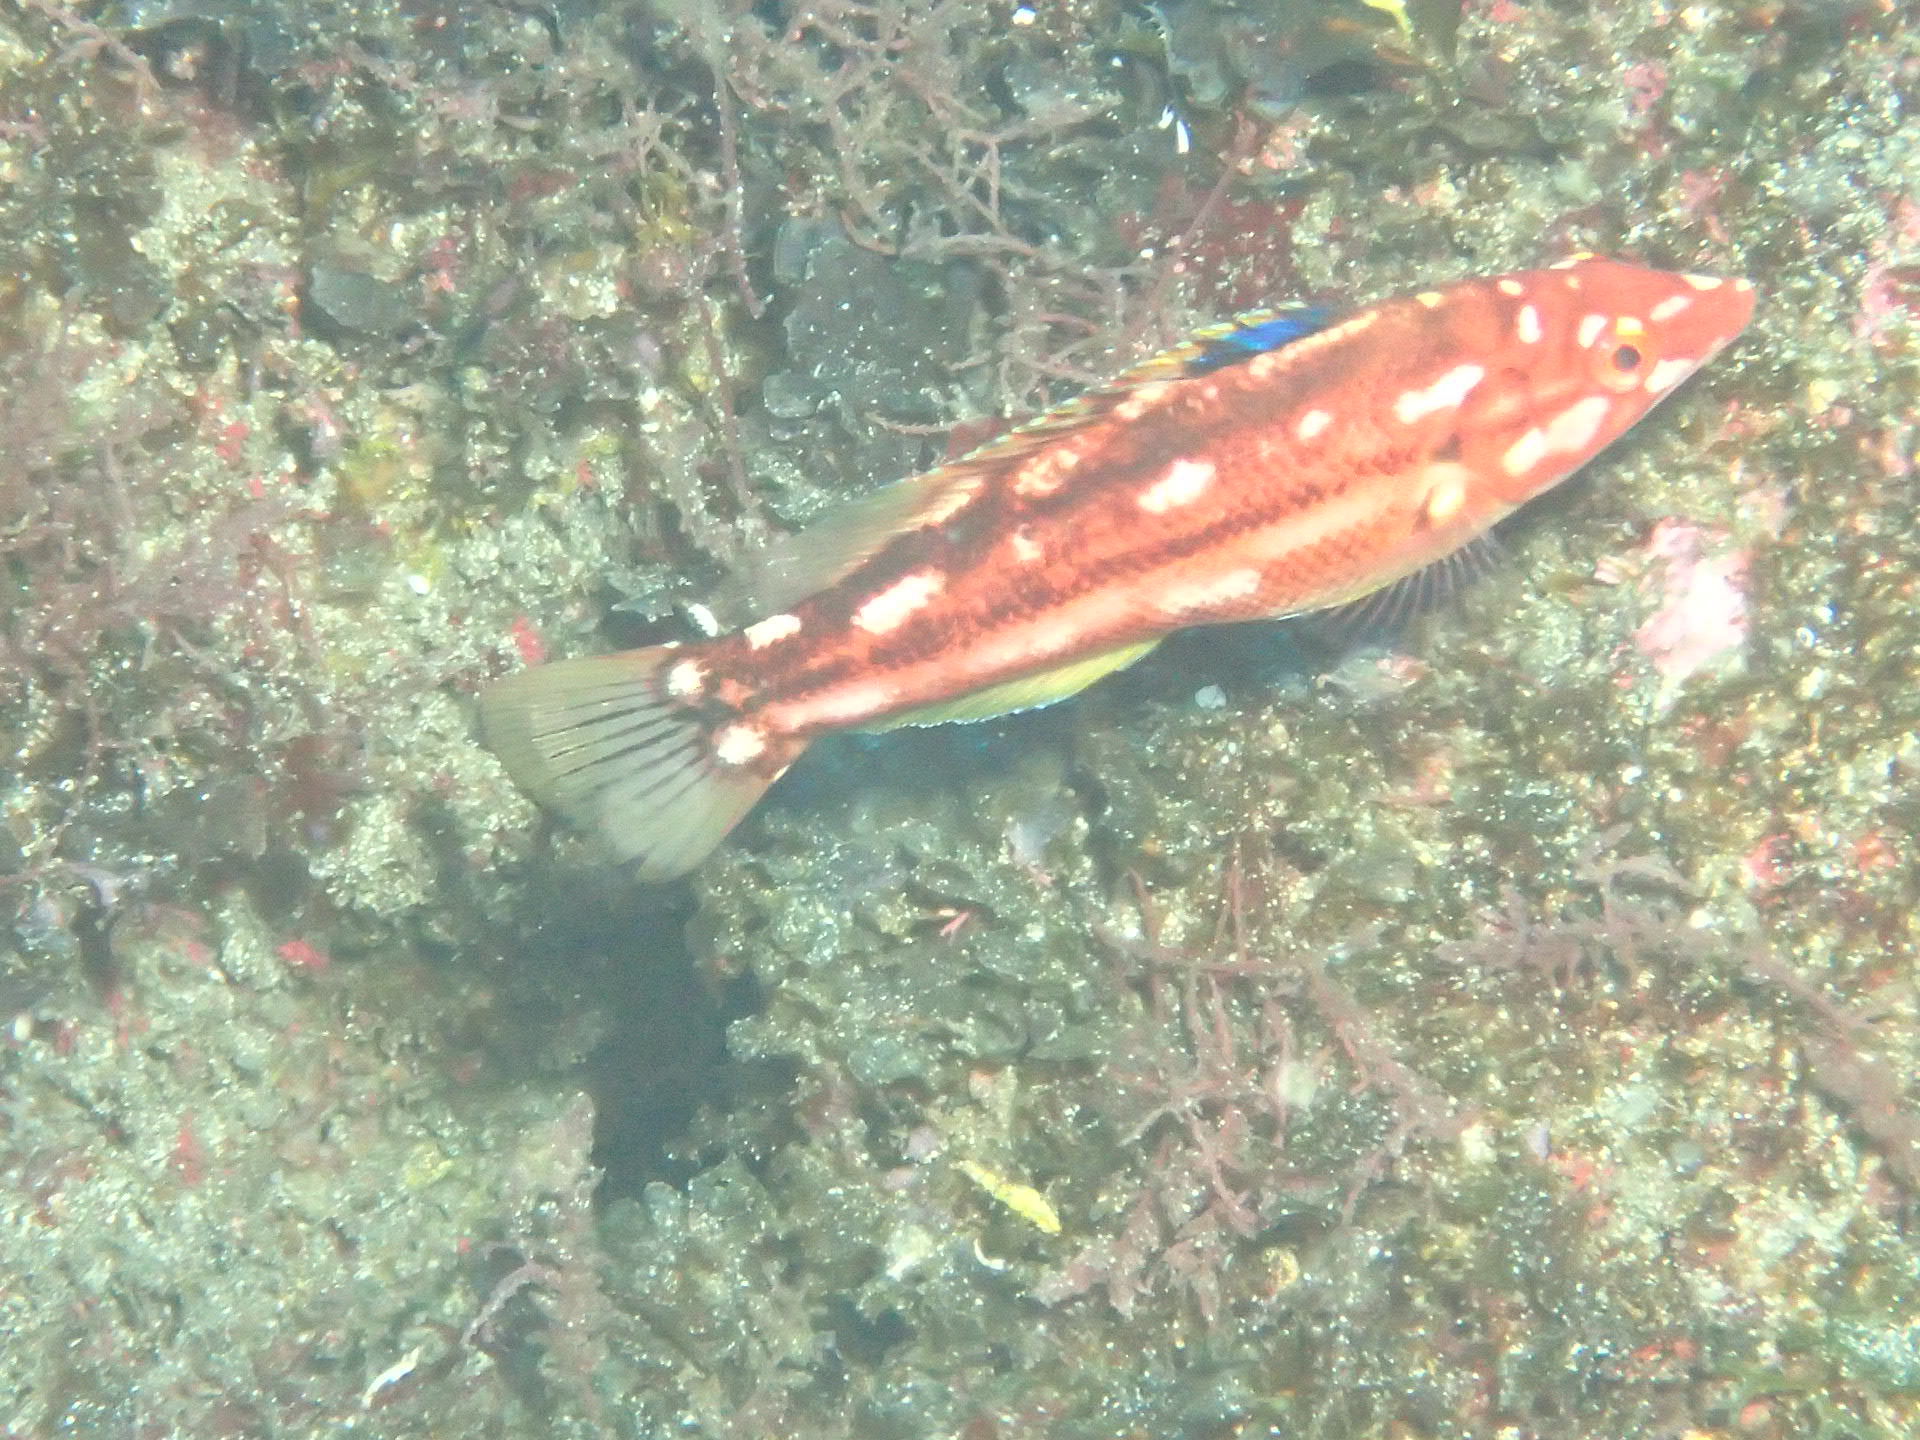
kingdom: Animalia
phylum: Chordata
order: Perciformes
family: Labridae
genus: Bodianus
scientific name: Bodianus scrofa
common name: Barred hogfish
